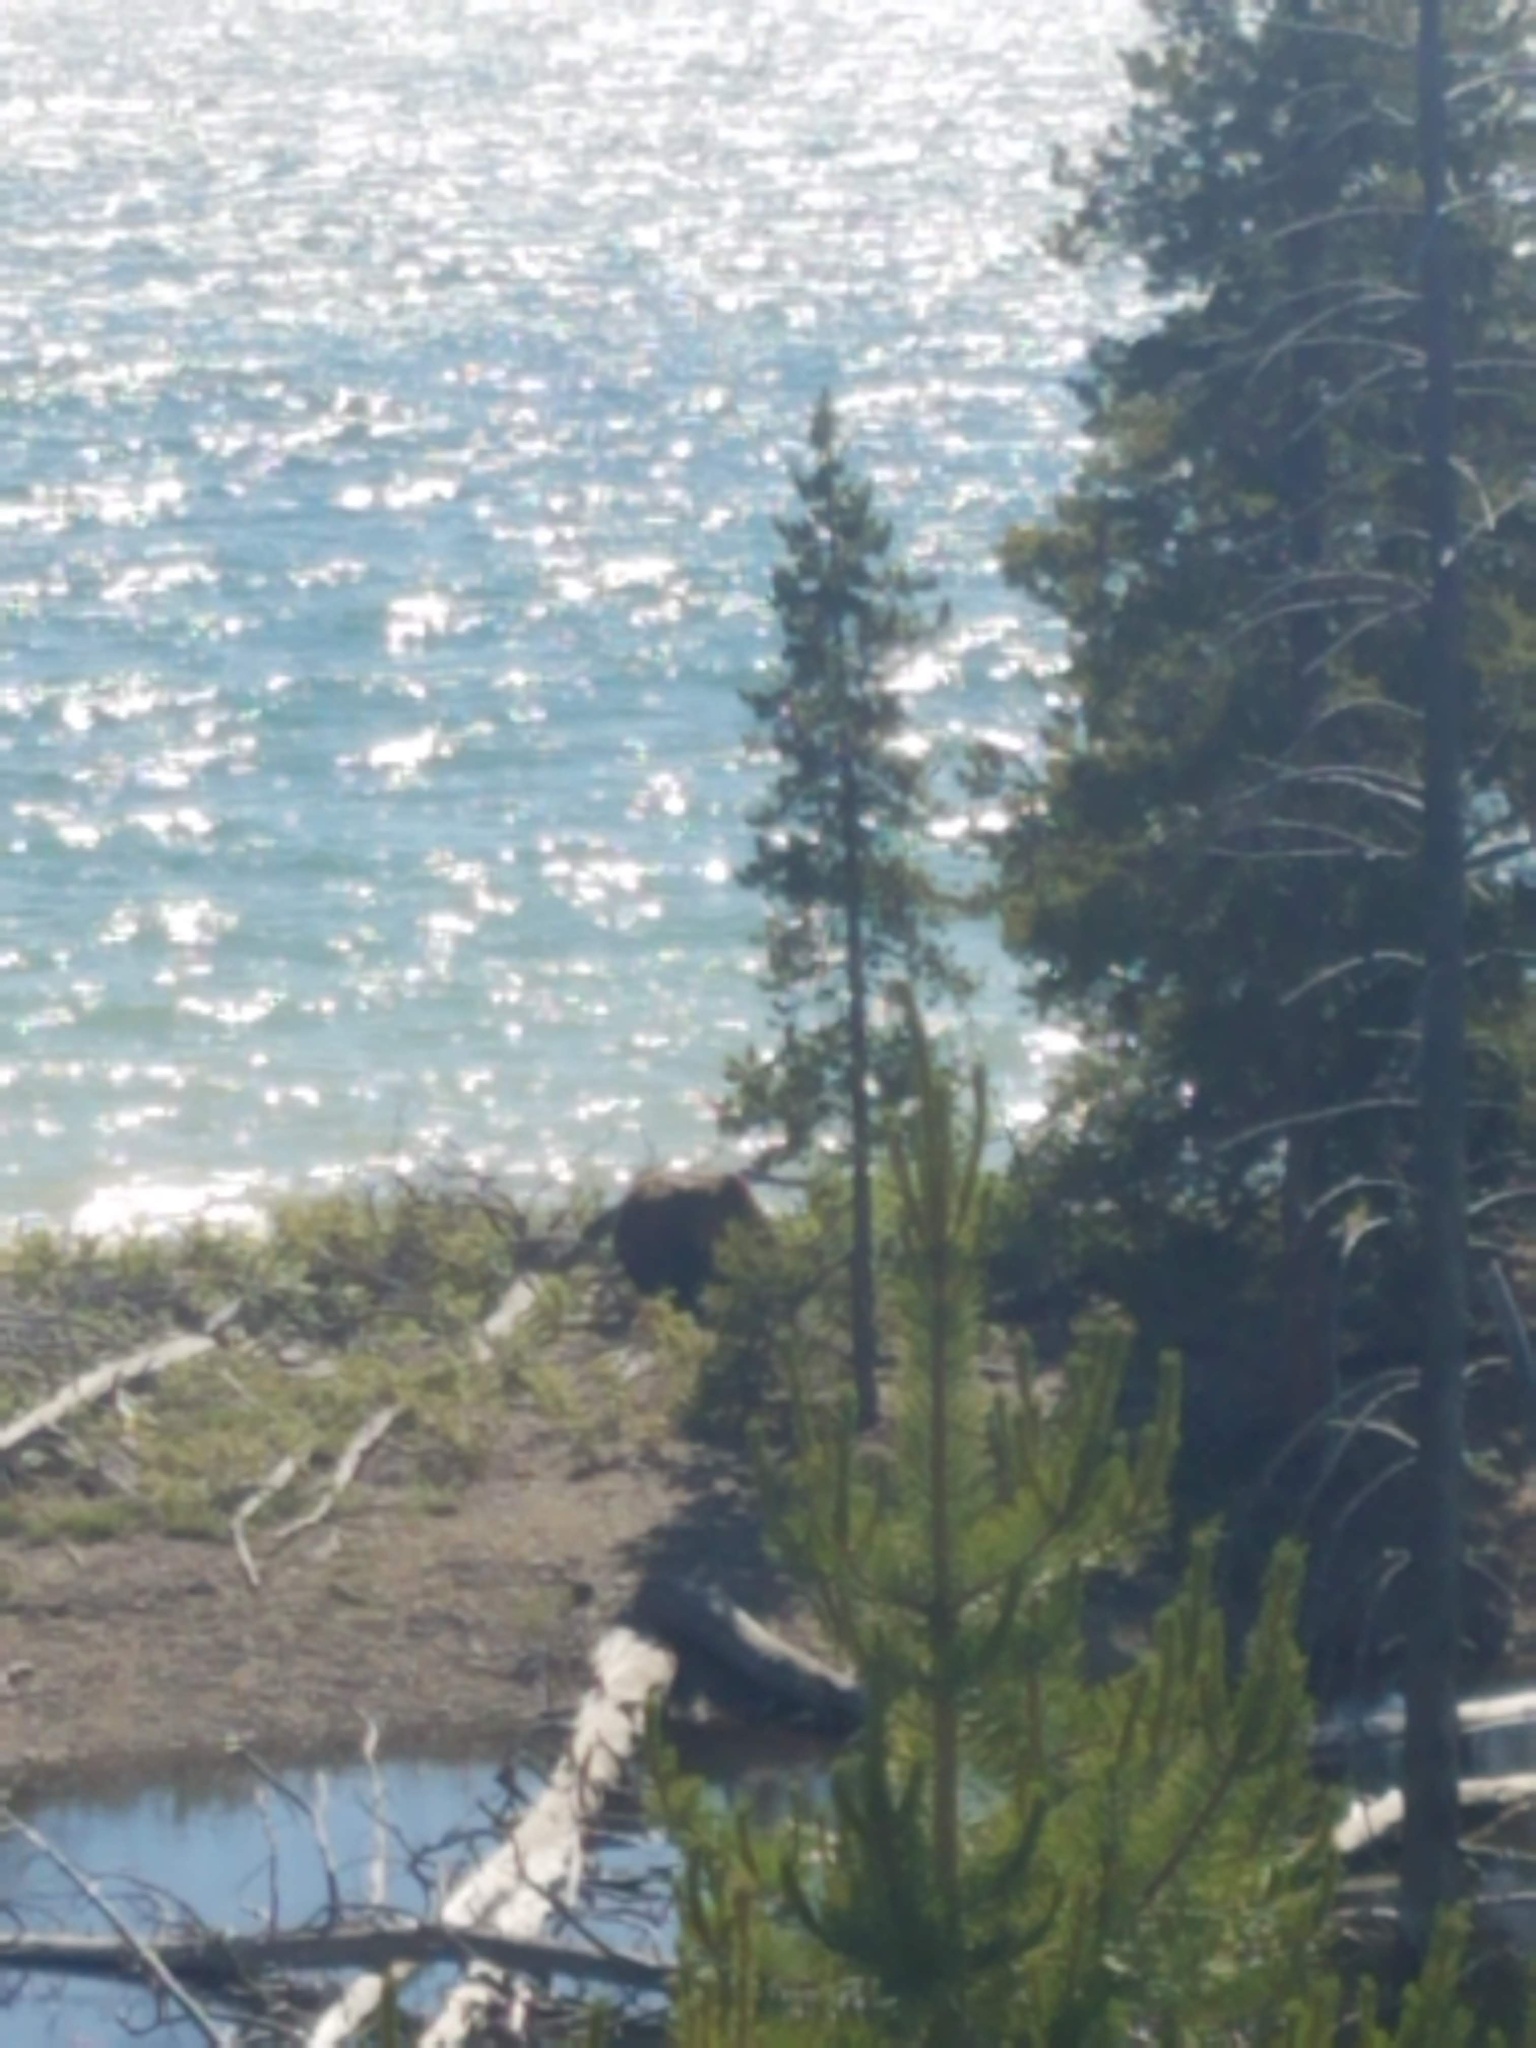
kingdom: Animalia
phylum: Chordata
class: Mammalia
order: Carnivora
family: Ursidae
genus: Ursus
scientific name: Ursus arctos
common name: Brown bear
